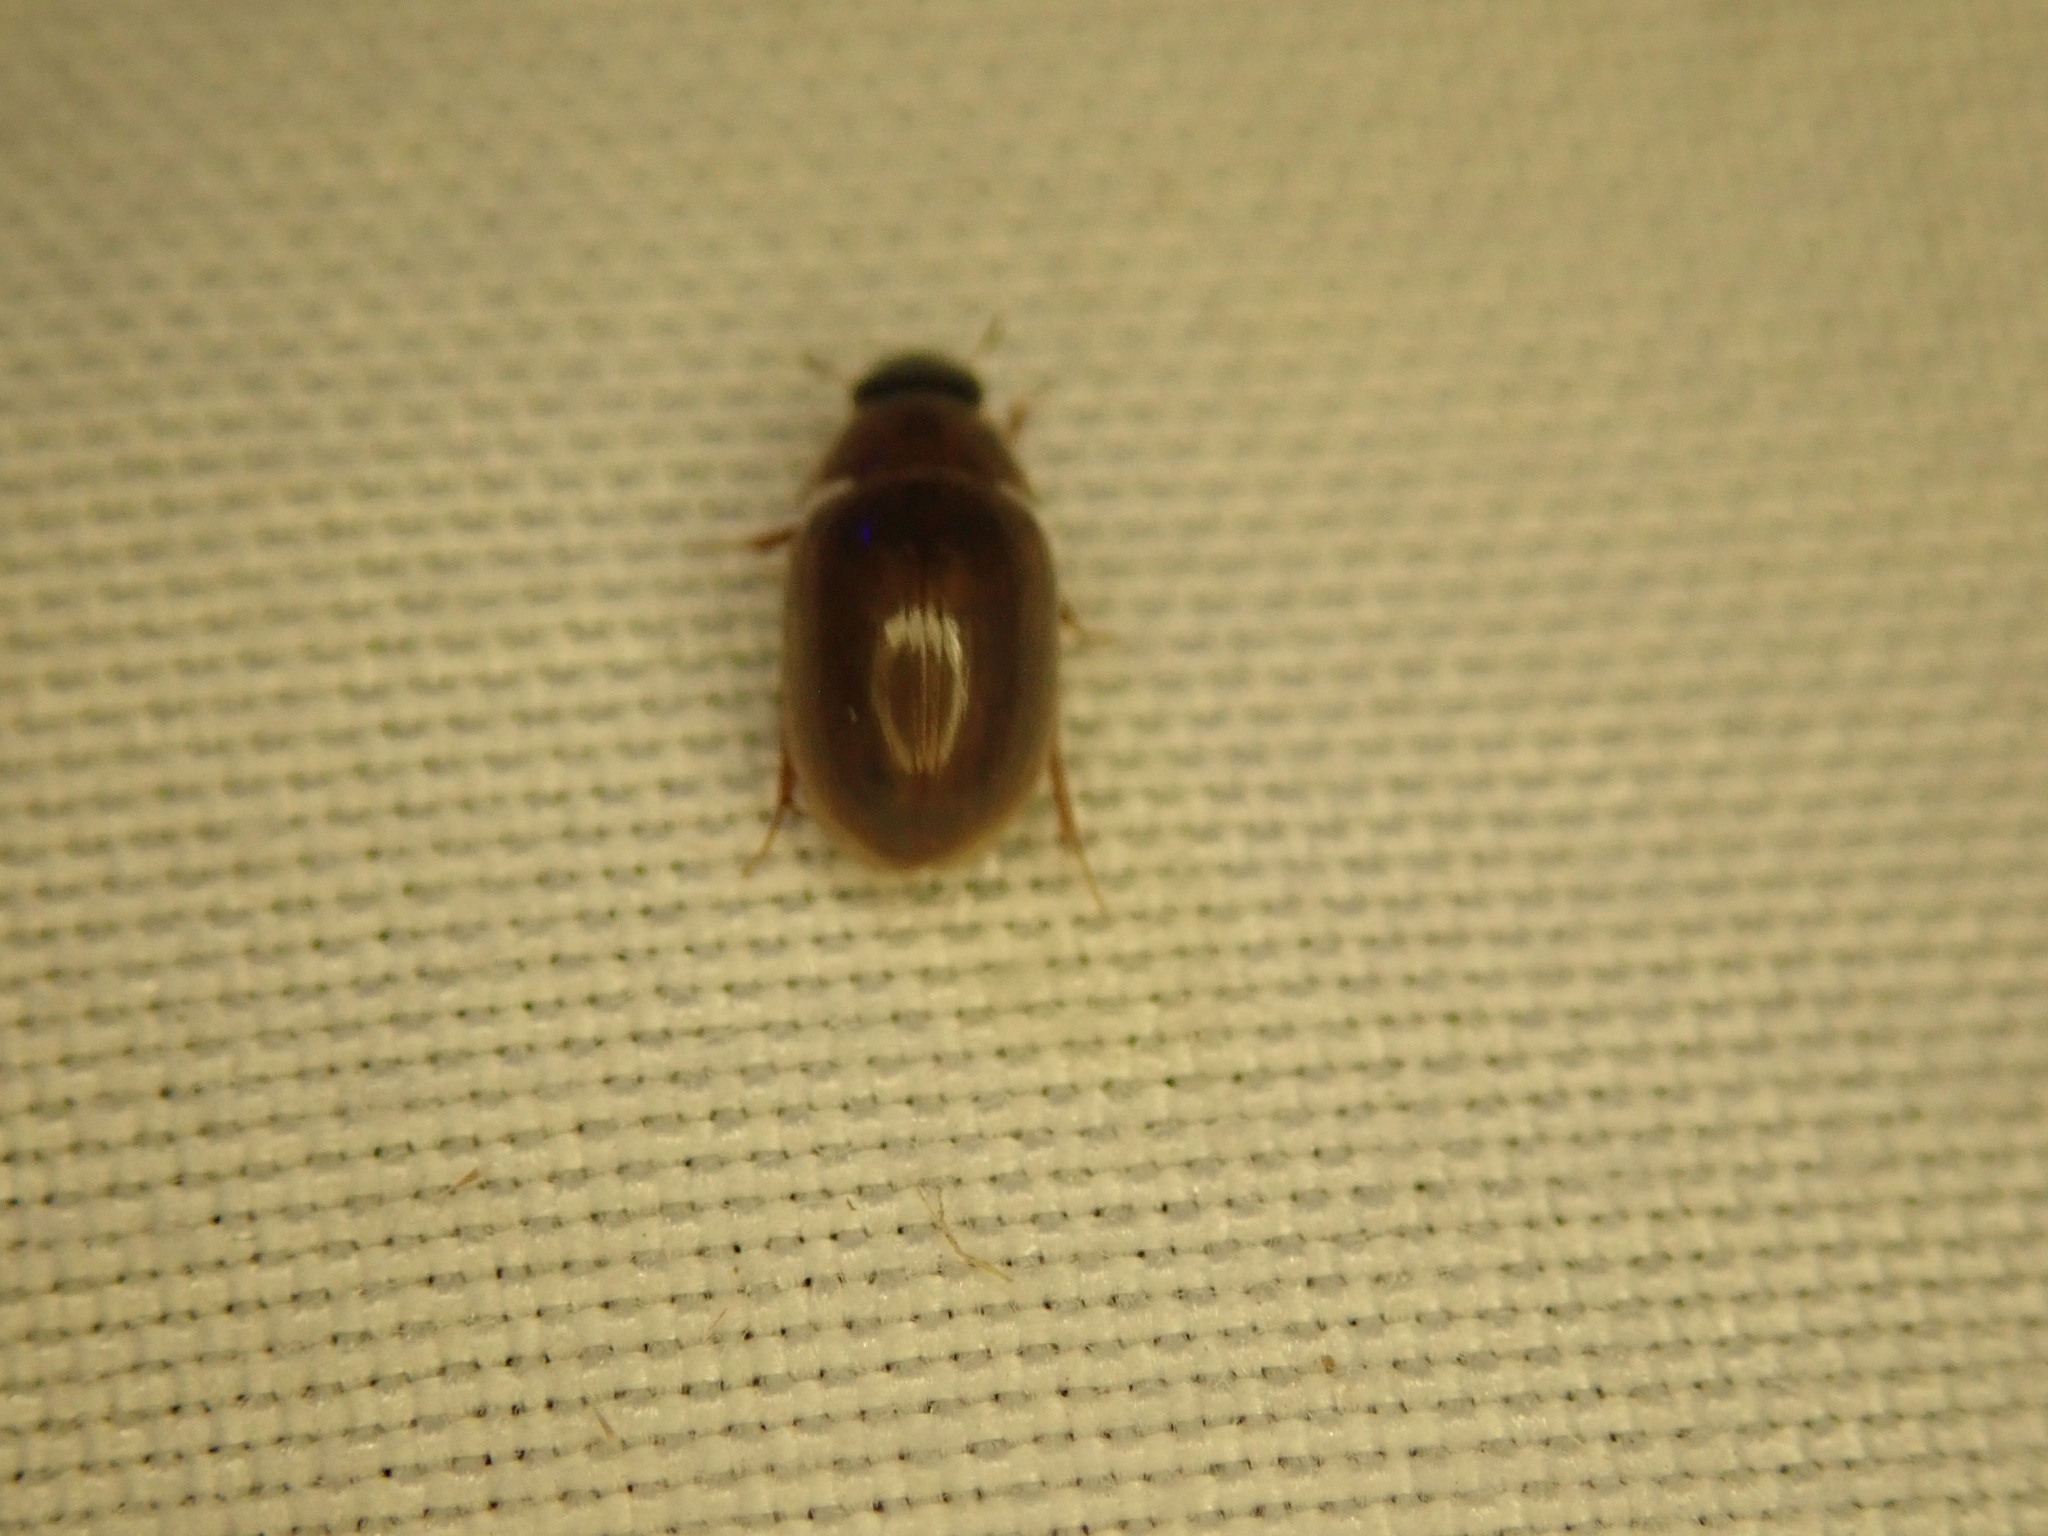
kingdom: Animalia
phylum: Arthropoda
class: Insecta
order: Coleoptera
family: Hydrophilidae
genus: Enochrus
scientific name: Enochrus
